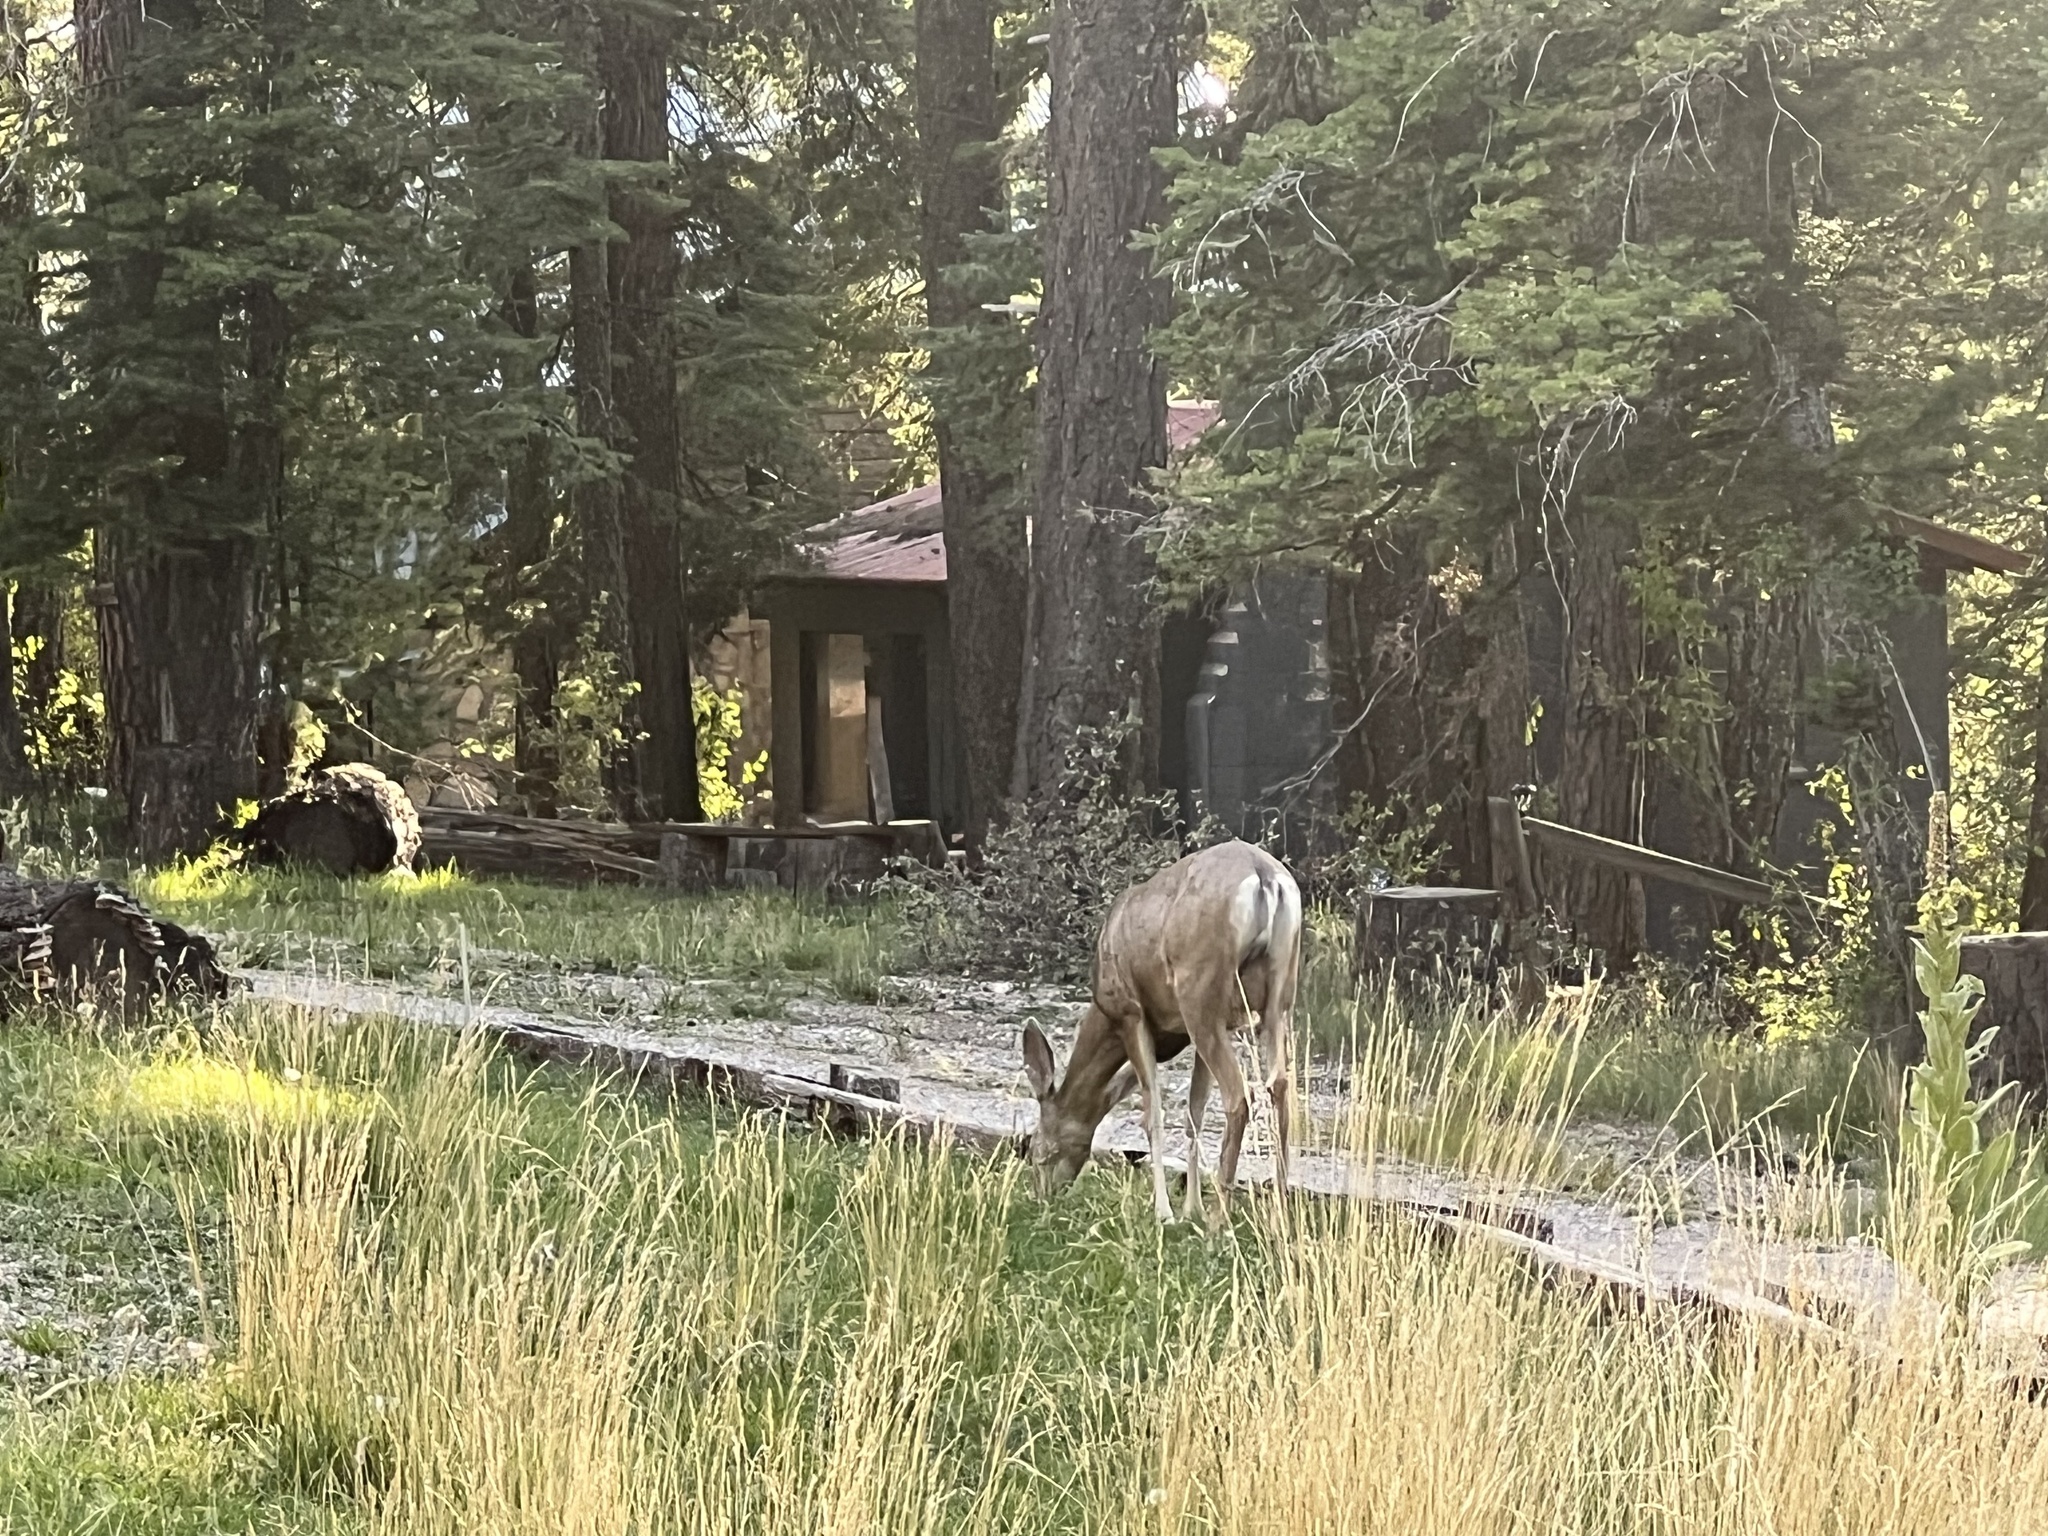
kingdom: Animalia
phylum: Chordata
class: Mammalia
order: Artiodactyla
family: Cervidae
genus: Odocoileus
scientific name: Odocoileus hemionus
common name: Mule deer
